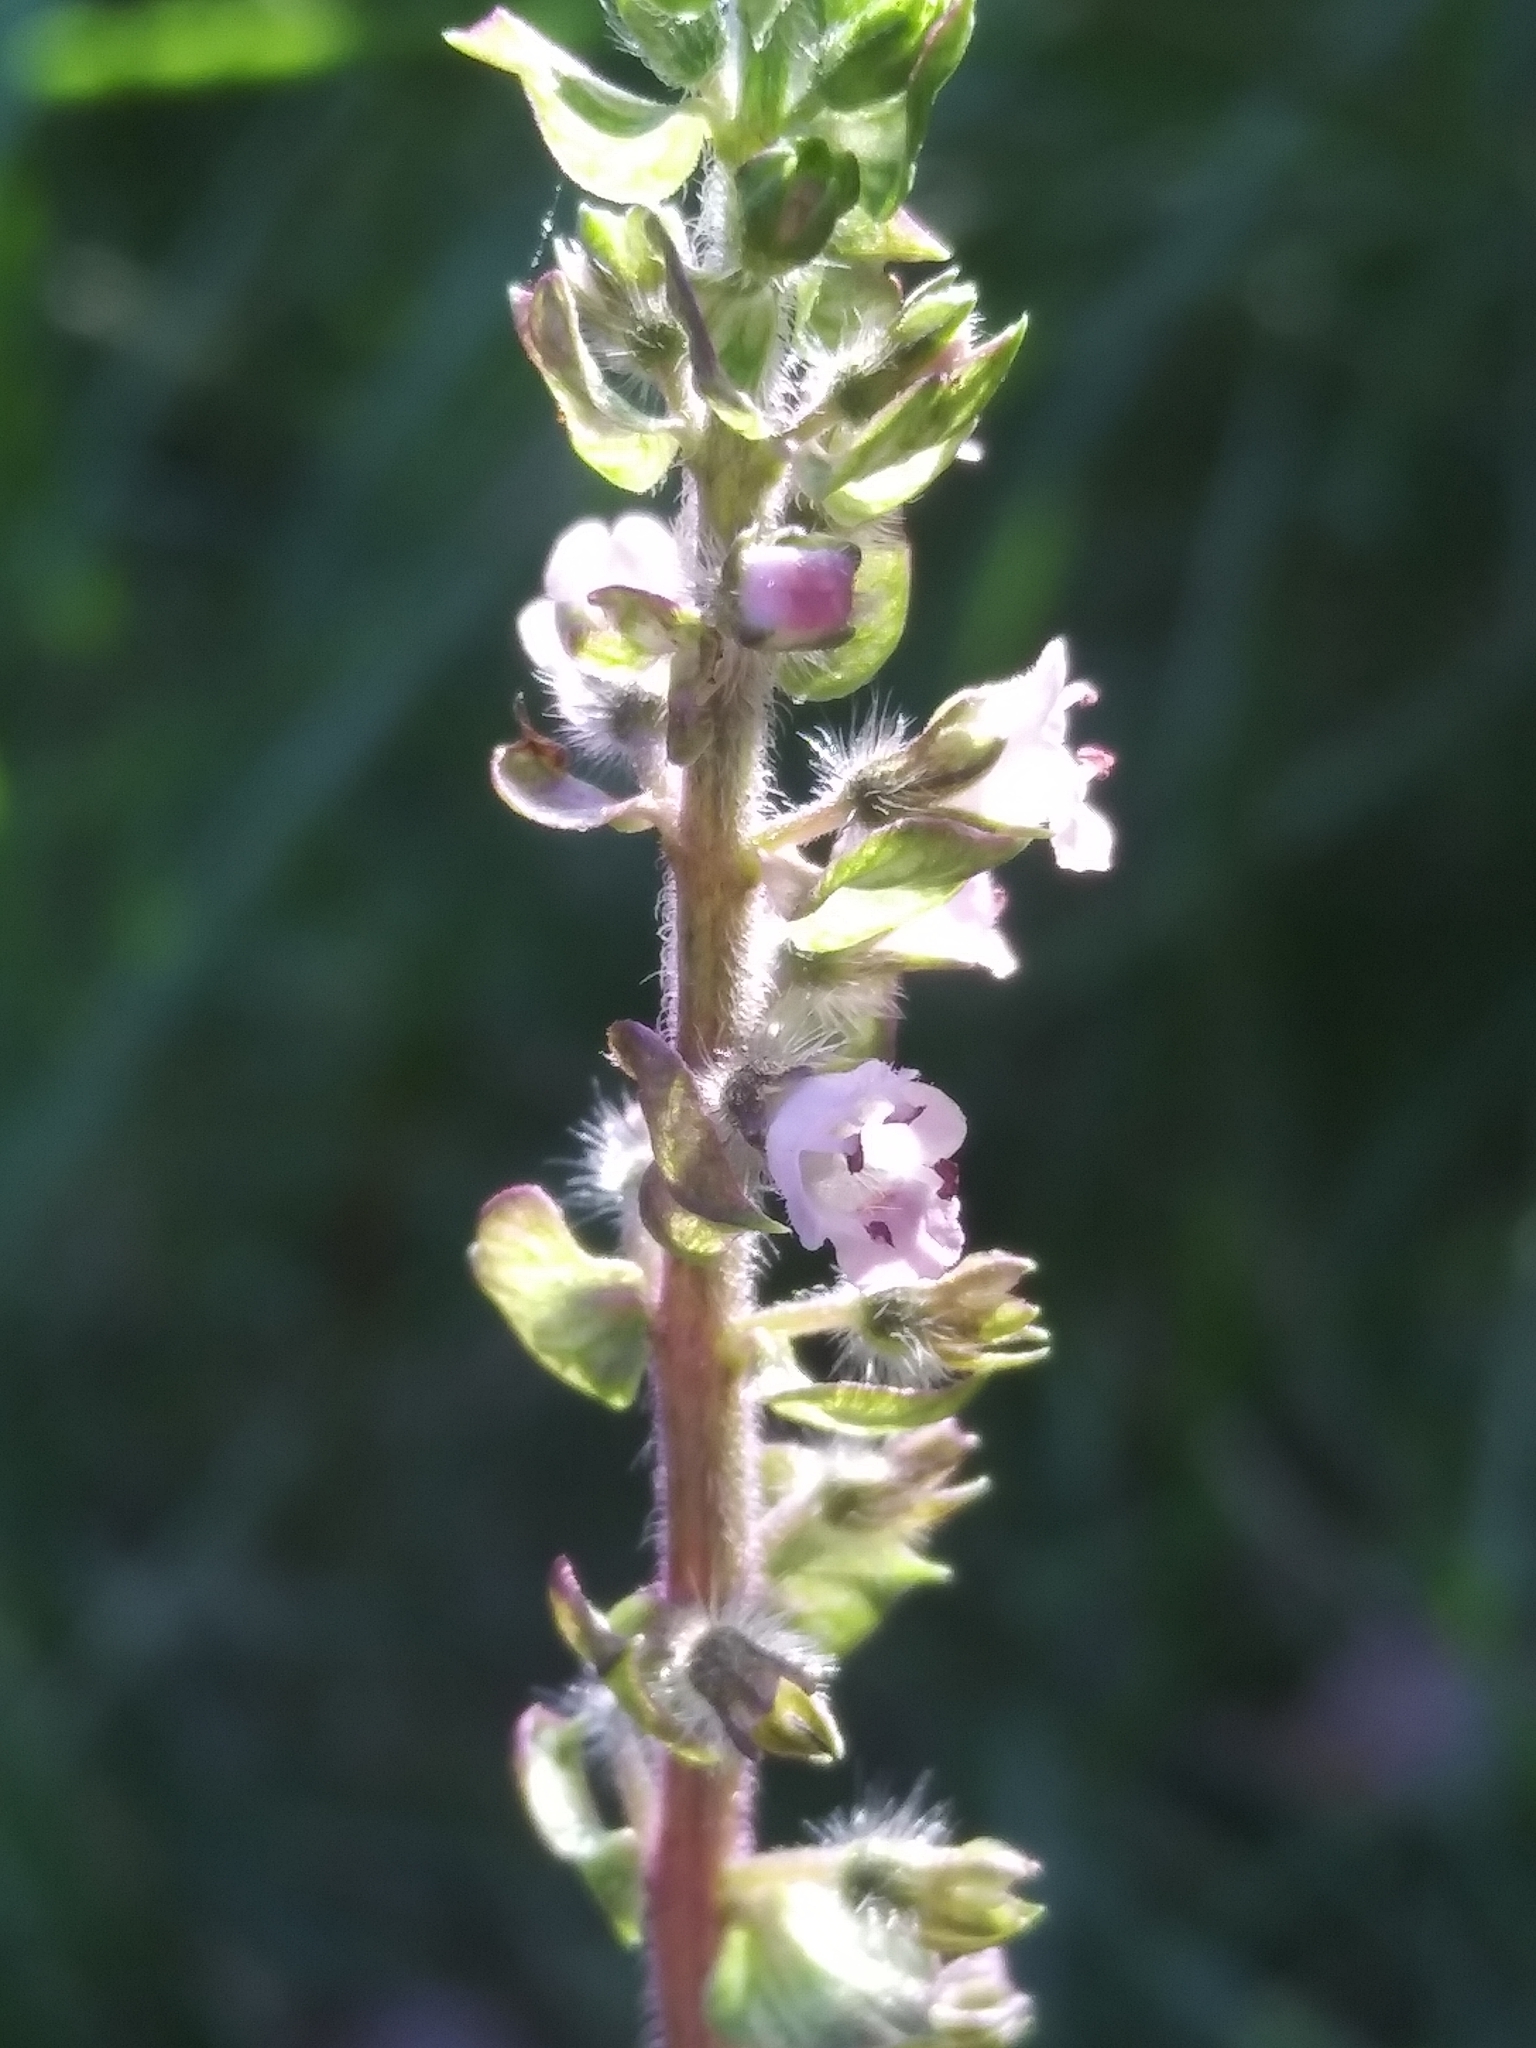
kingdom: Plantae
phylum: Tracheophyta
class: Magnoliopsida
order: Lamiales
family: Lamiaceae
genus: Perilla
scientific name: Perilla frutescens
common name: Perilla
